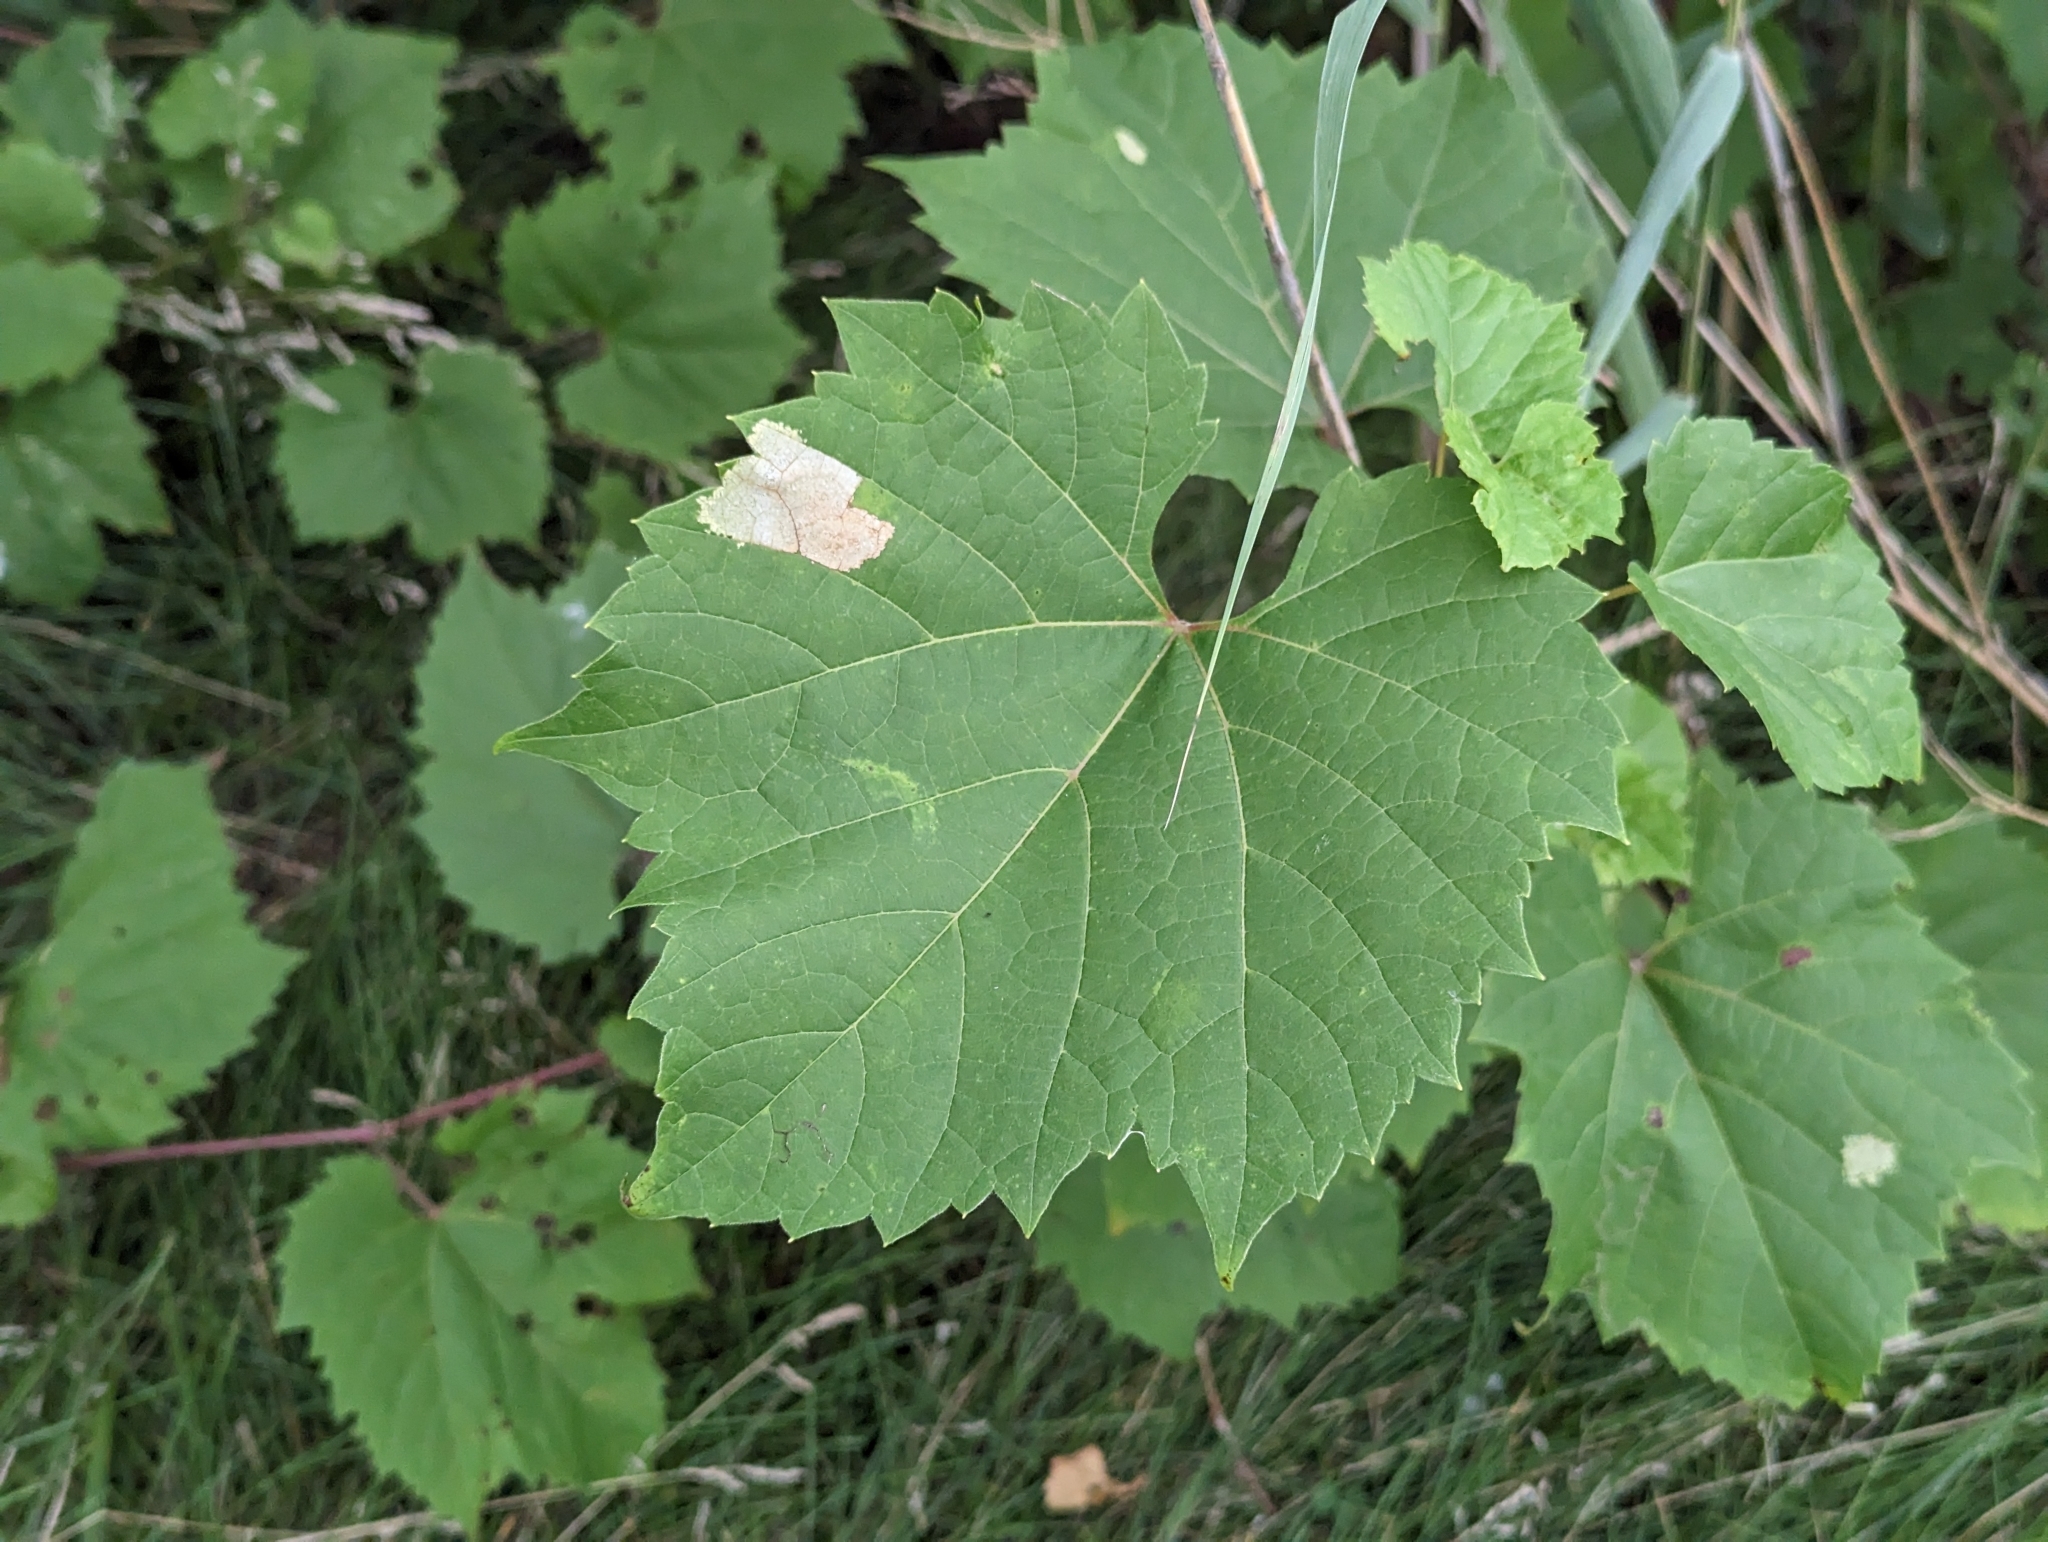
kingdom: Plantae
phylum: Tracheophyta
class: Magnoliopsida
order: Vitales
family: Vitaceae
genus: Vitis
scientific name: Vitis riparia
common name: Frost grape
